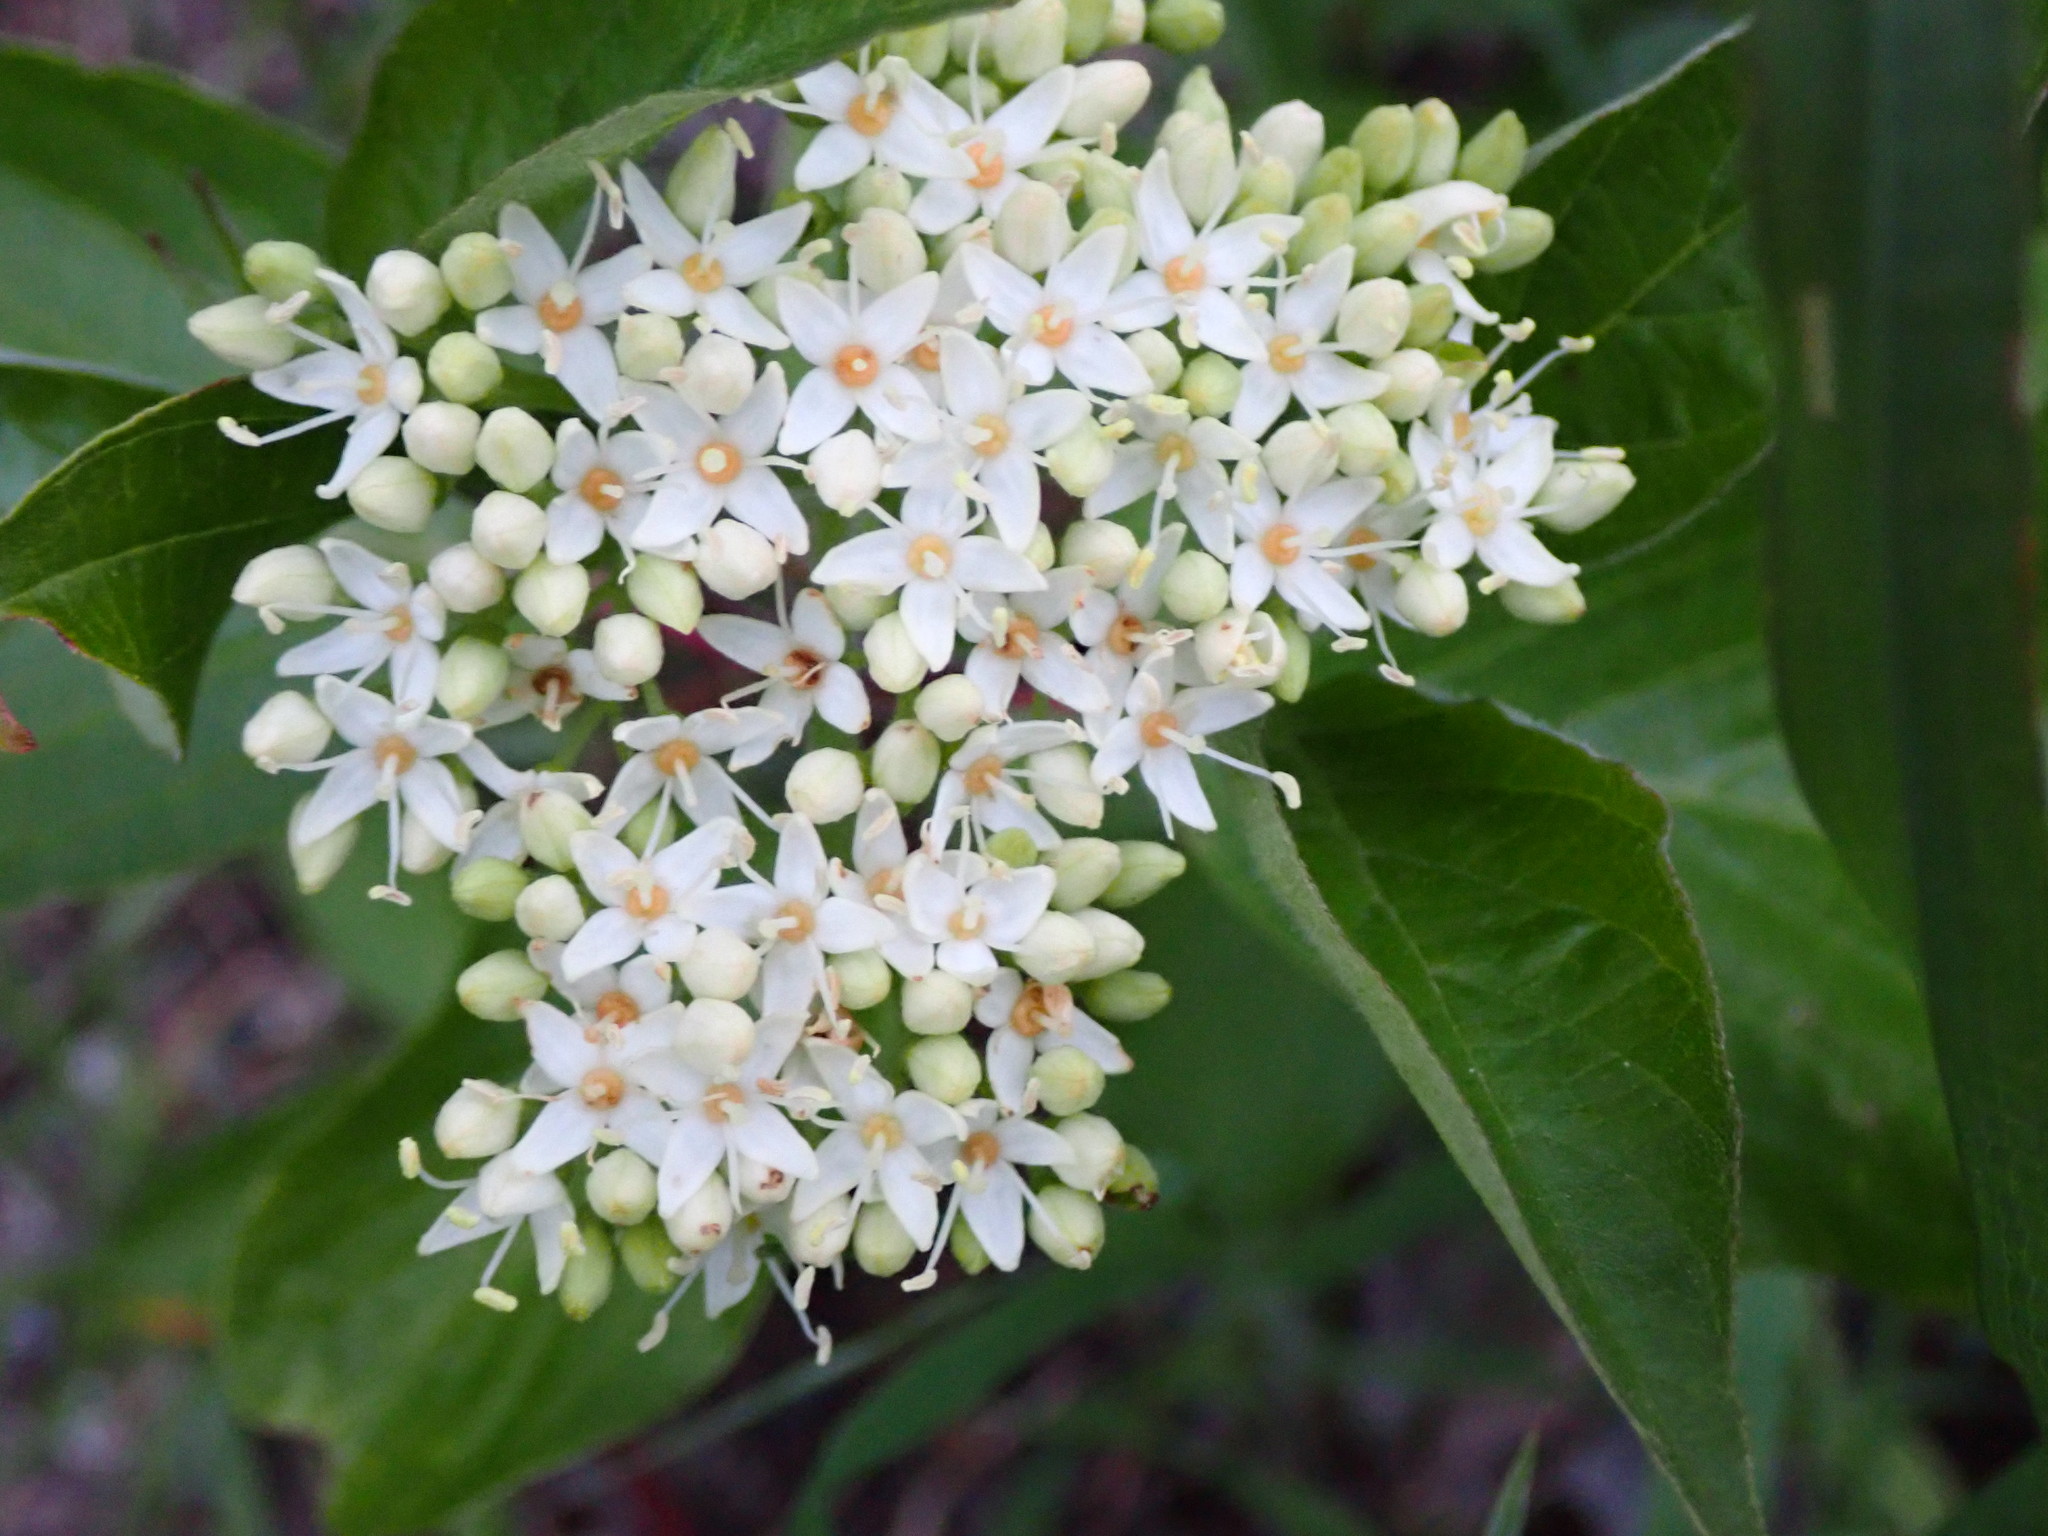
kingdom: Plantae
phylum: Tracheophyta
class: Magnoliopsida
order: Cornales
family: Cornaceae
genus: Cornus
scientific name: Cornus sericea
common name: Red-osier dogwood
